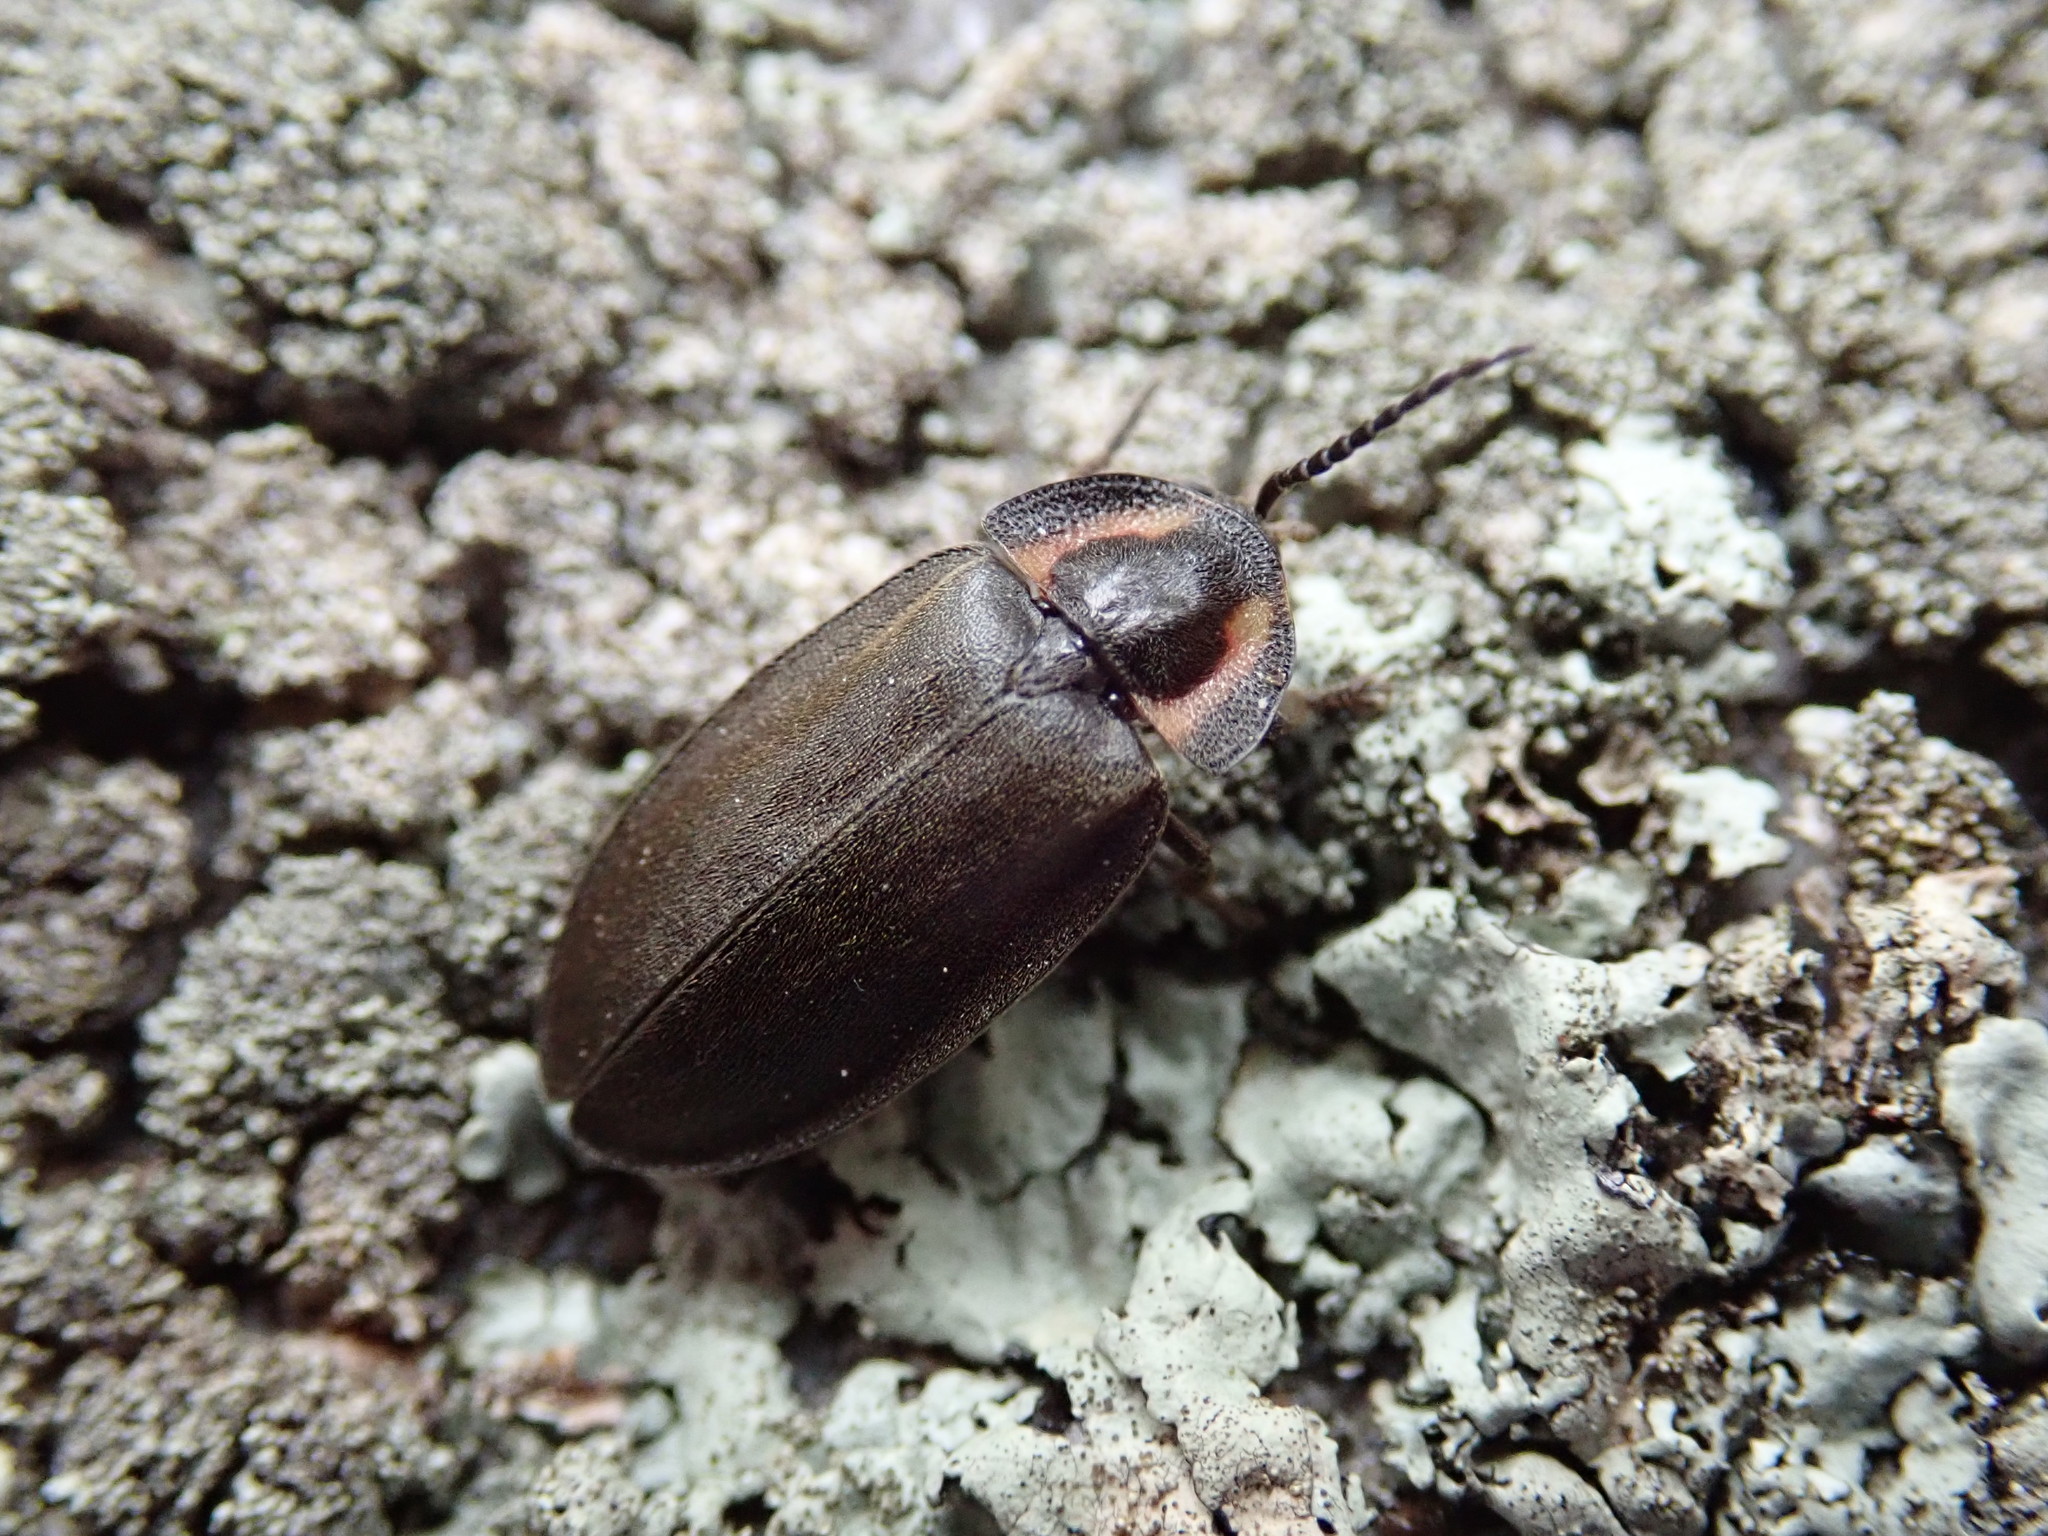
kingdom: Animalia
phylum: Arthropoda
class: Insecta
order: Coleoptera
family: Lampyridae
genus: Photinus
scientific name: Photinus corrusca
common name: Winter firefly
